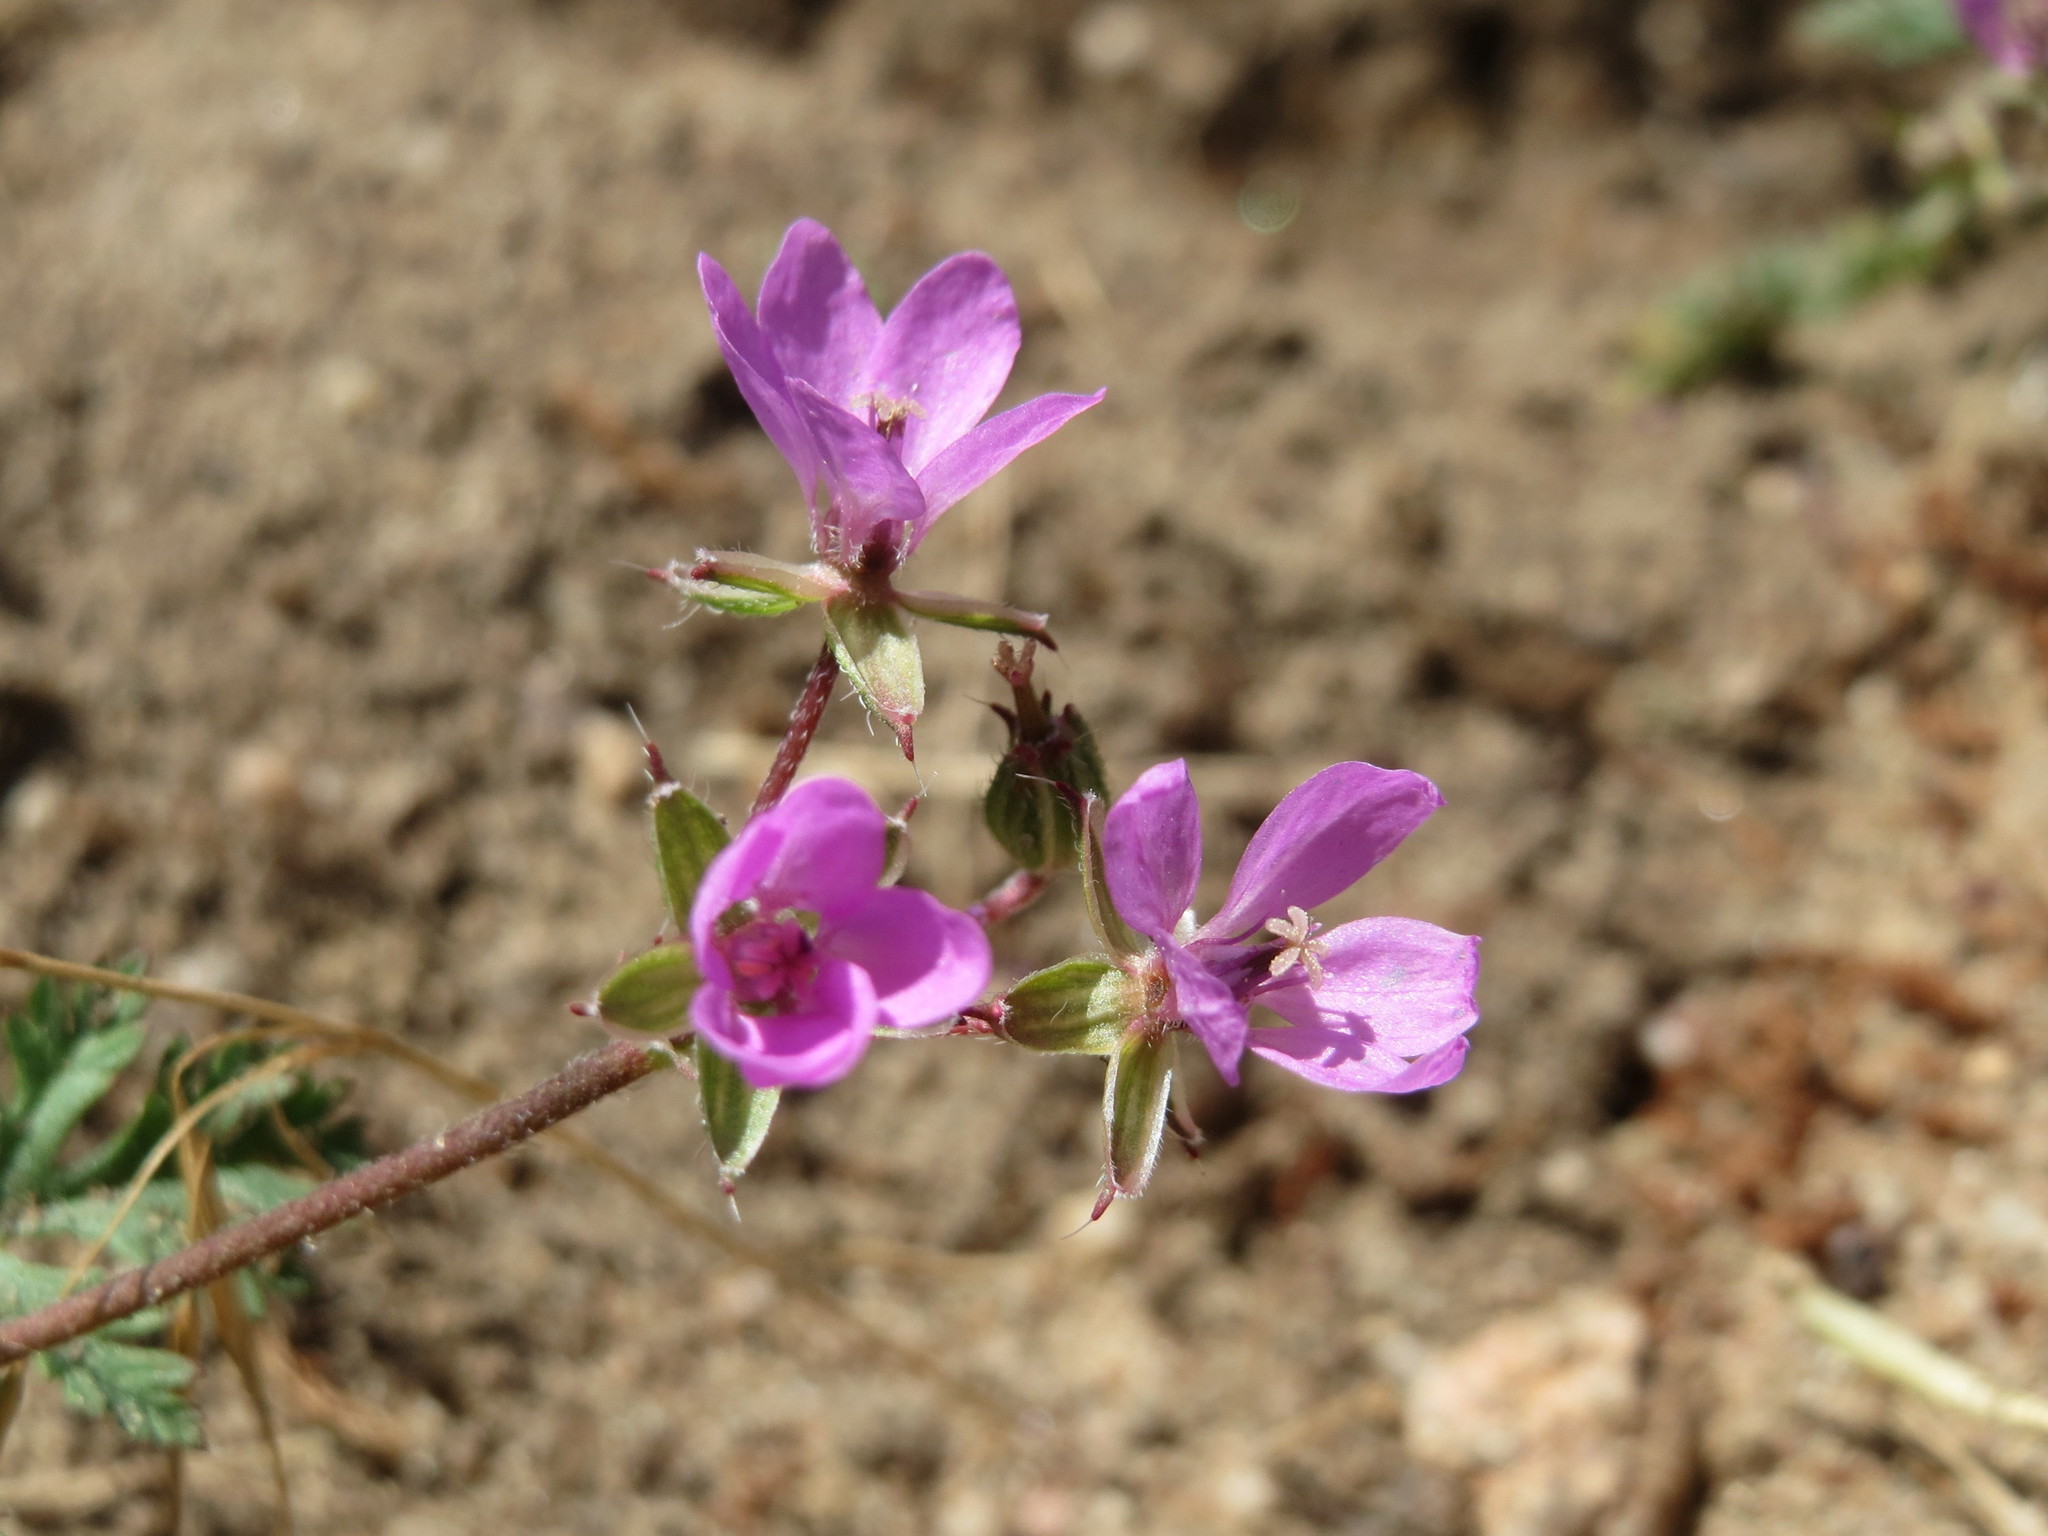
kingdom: Plantae
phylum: Tracheophyta
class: Magnoliopsida
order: Geraniales
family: Geraniaceae
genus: Erodium
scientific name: Erodium cicutarium
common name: Common stork's-bill
